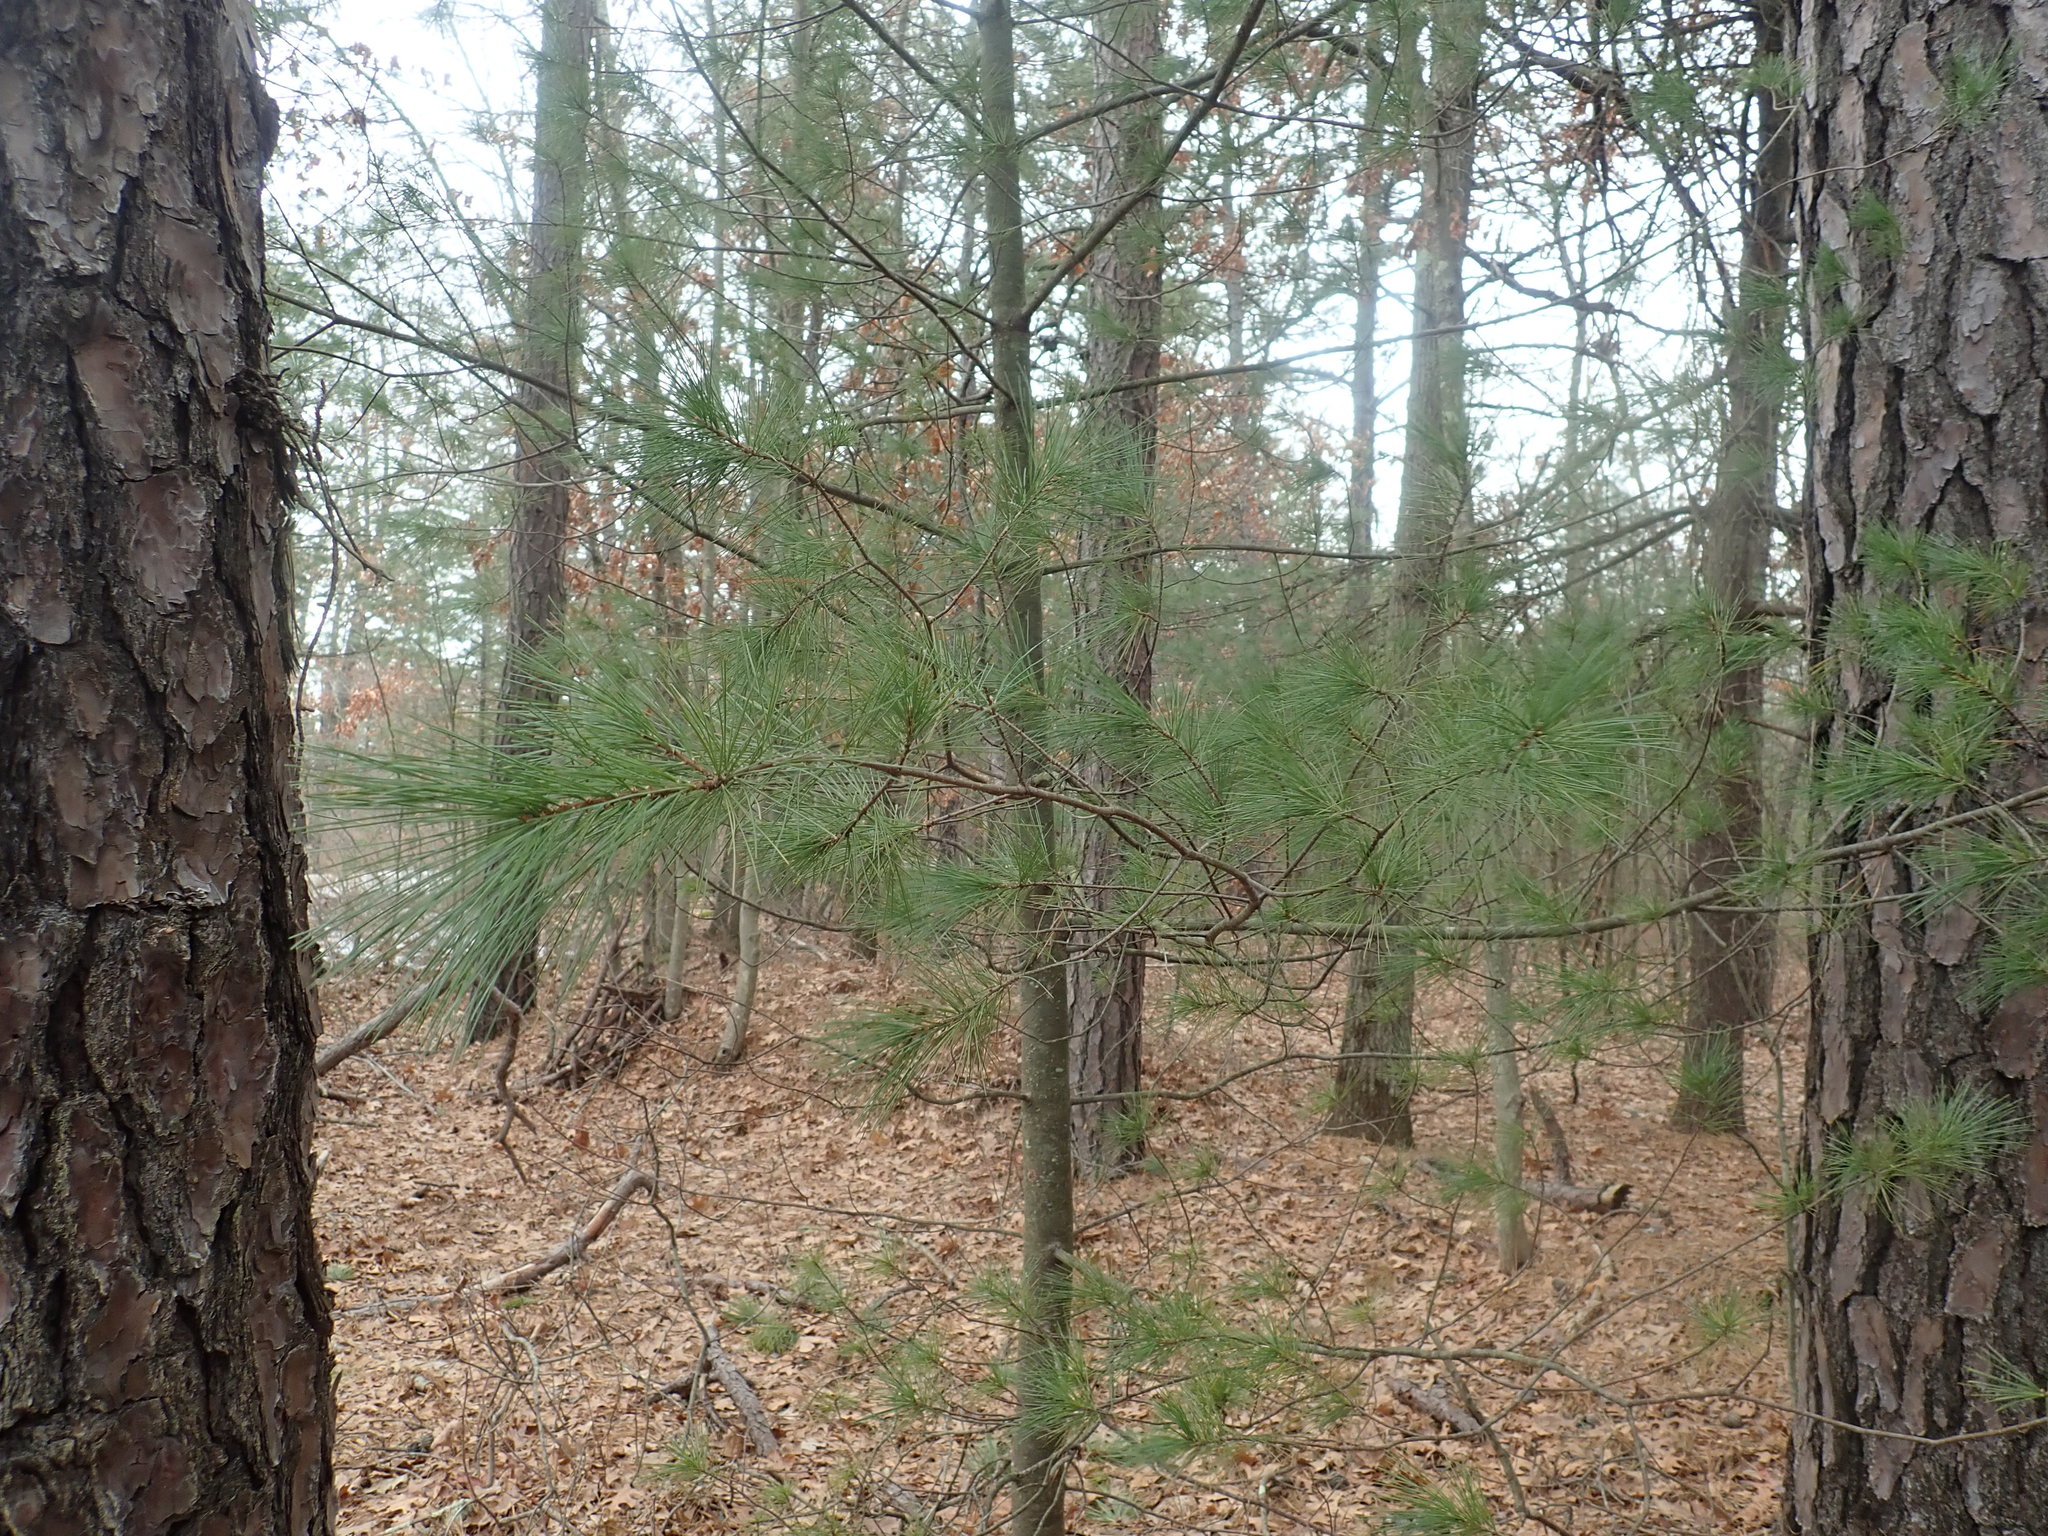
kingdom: Plantae
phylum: Tracheophyta
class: Pinopsida
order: Pinales
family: Pinaceae
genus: Pinus
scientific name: Pinus strobus
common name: Weymouth pine
